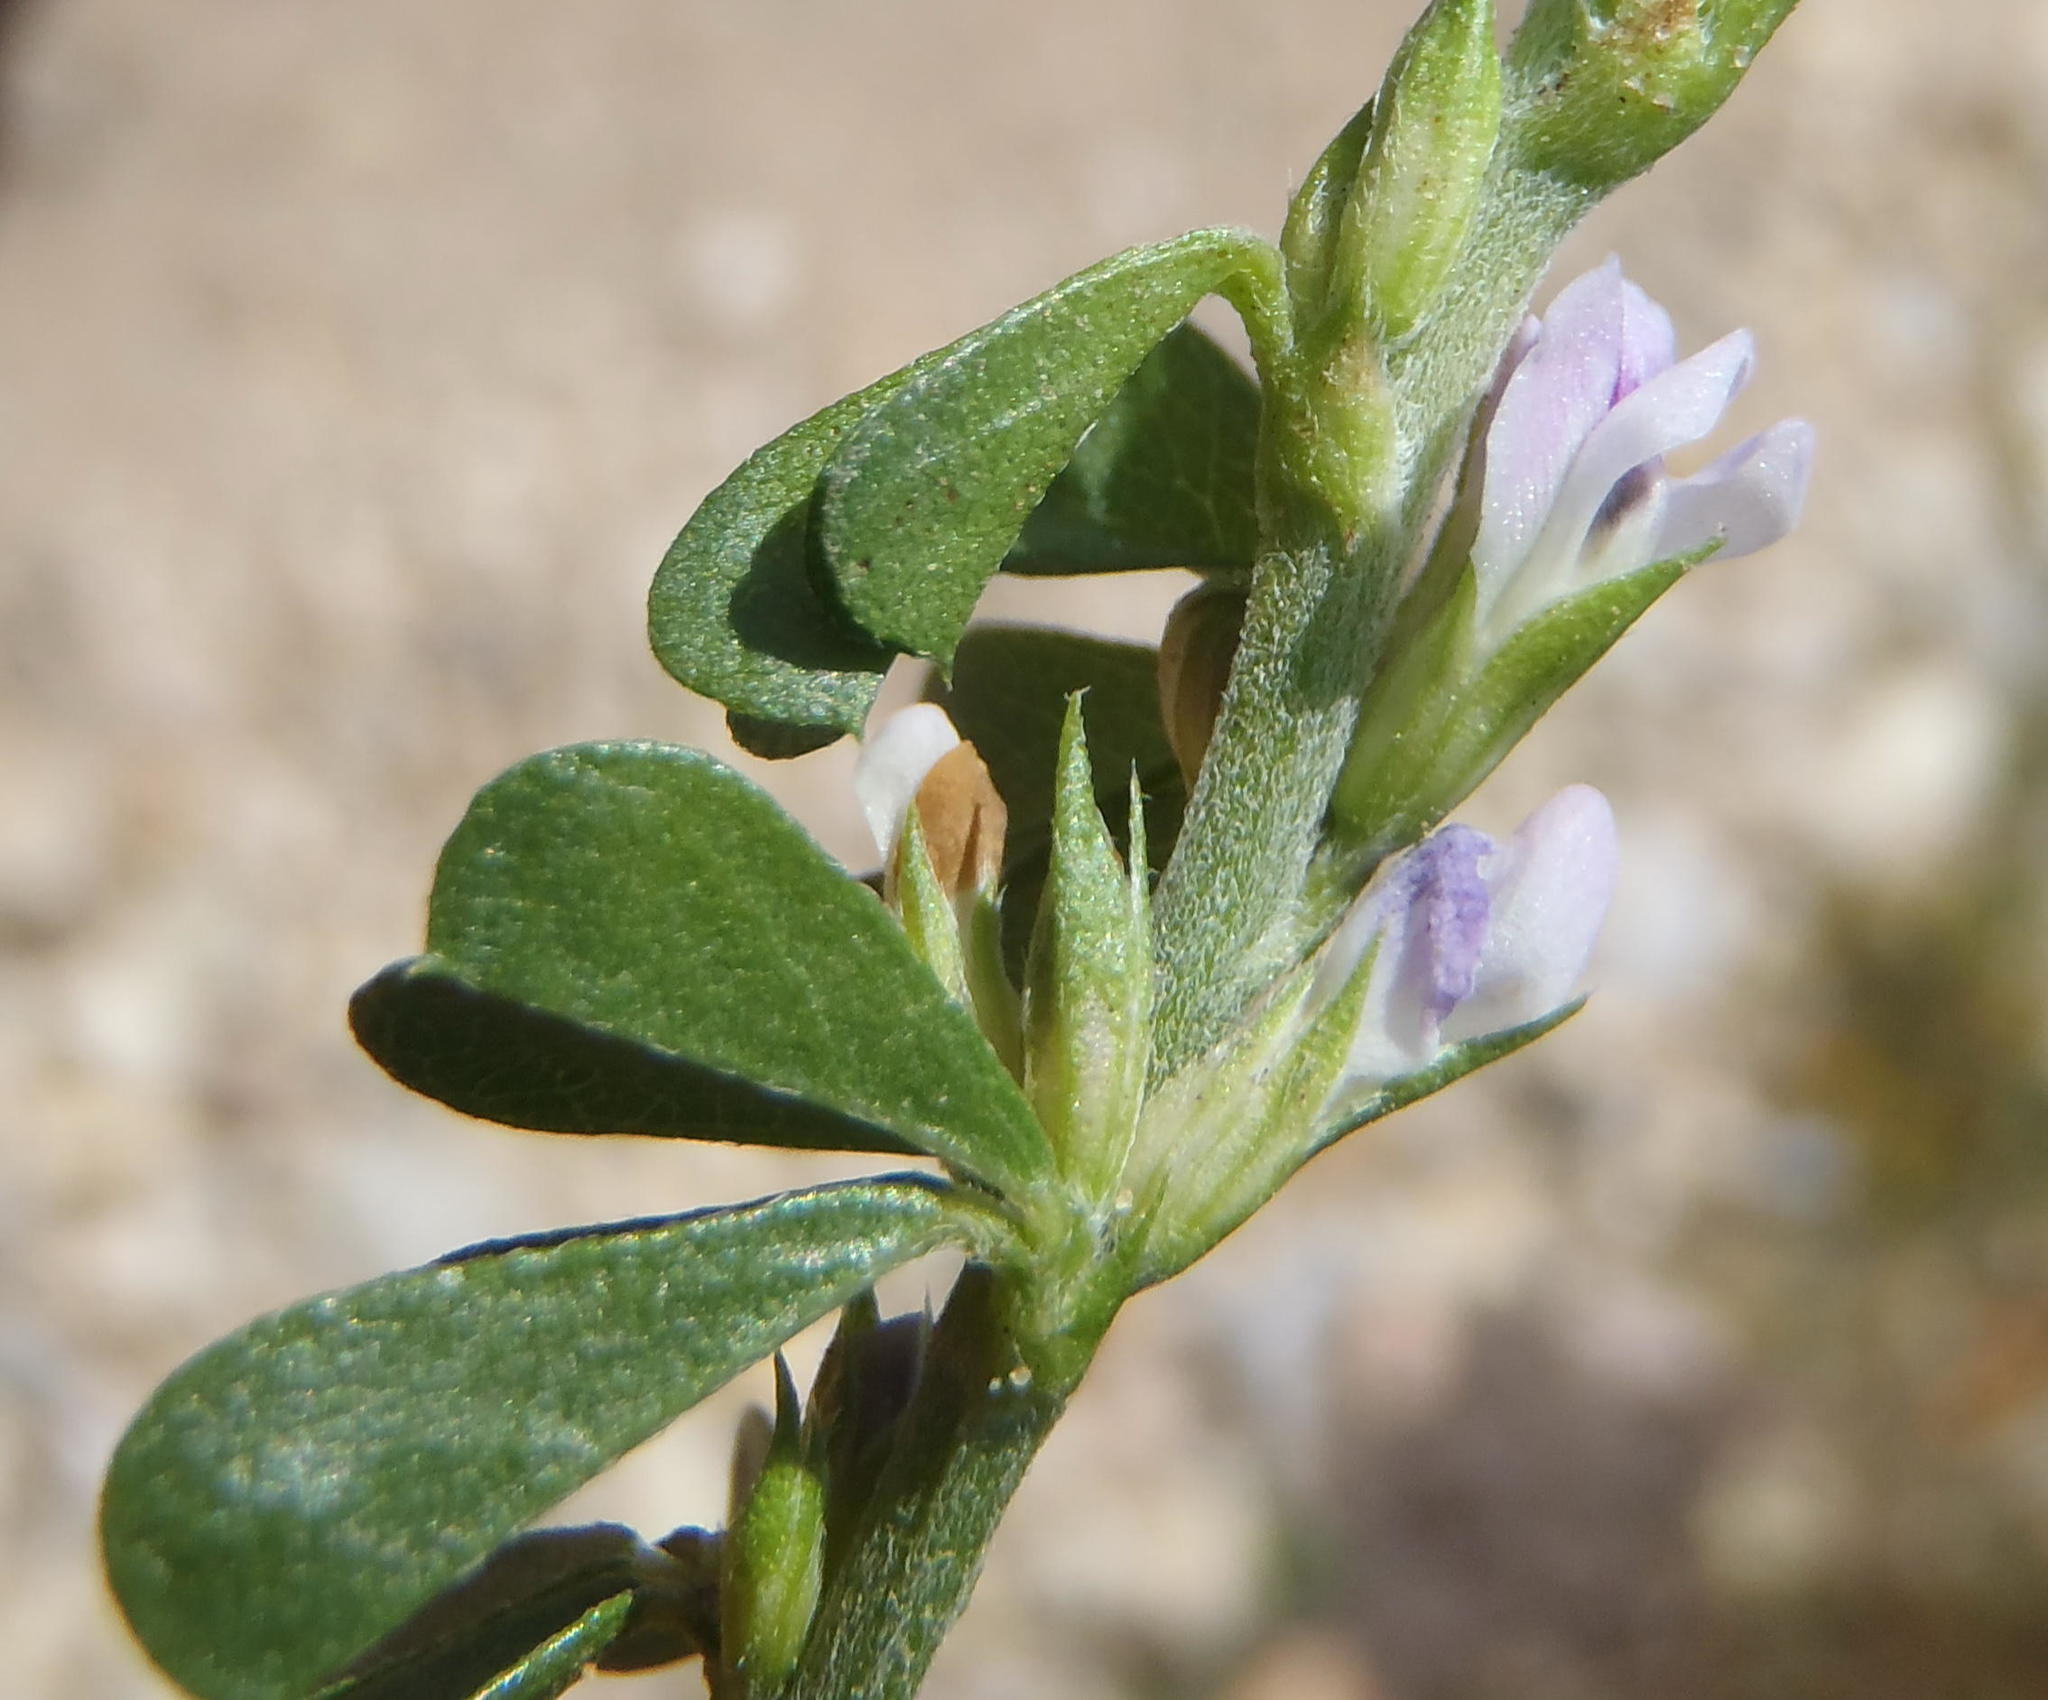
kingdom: Plantae
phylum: Tracheophyta
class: Magnoliopsida
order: Fabales
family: Fabaceae
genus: Psoralea
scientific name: Psoralea
